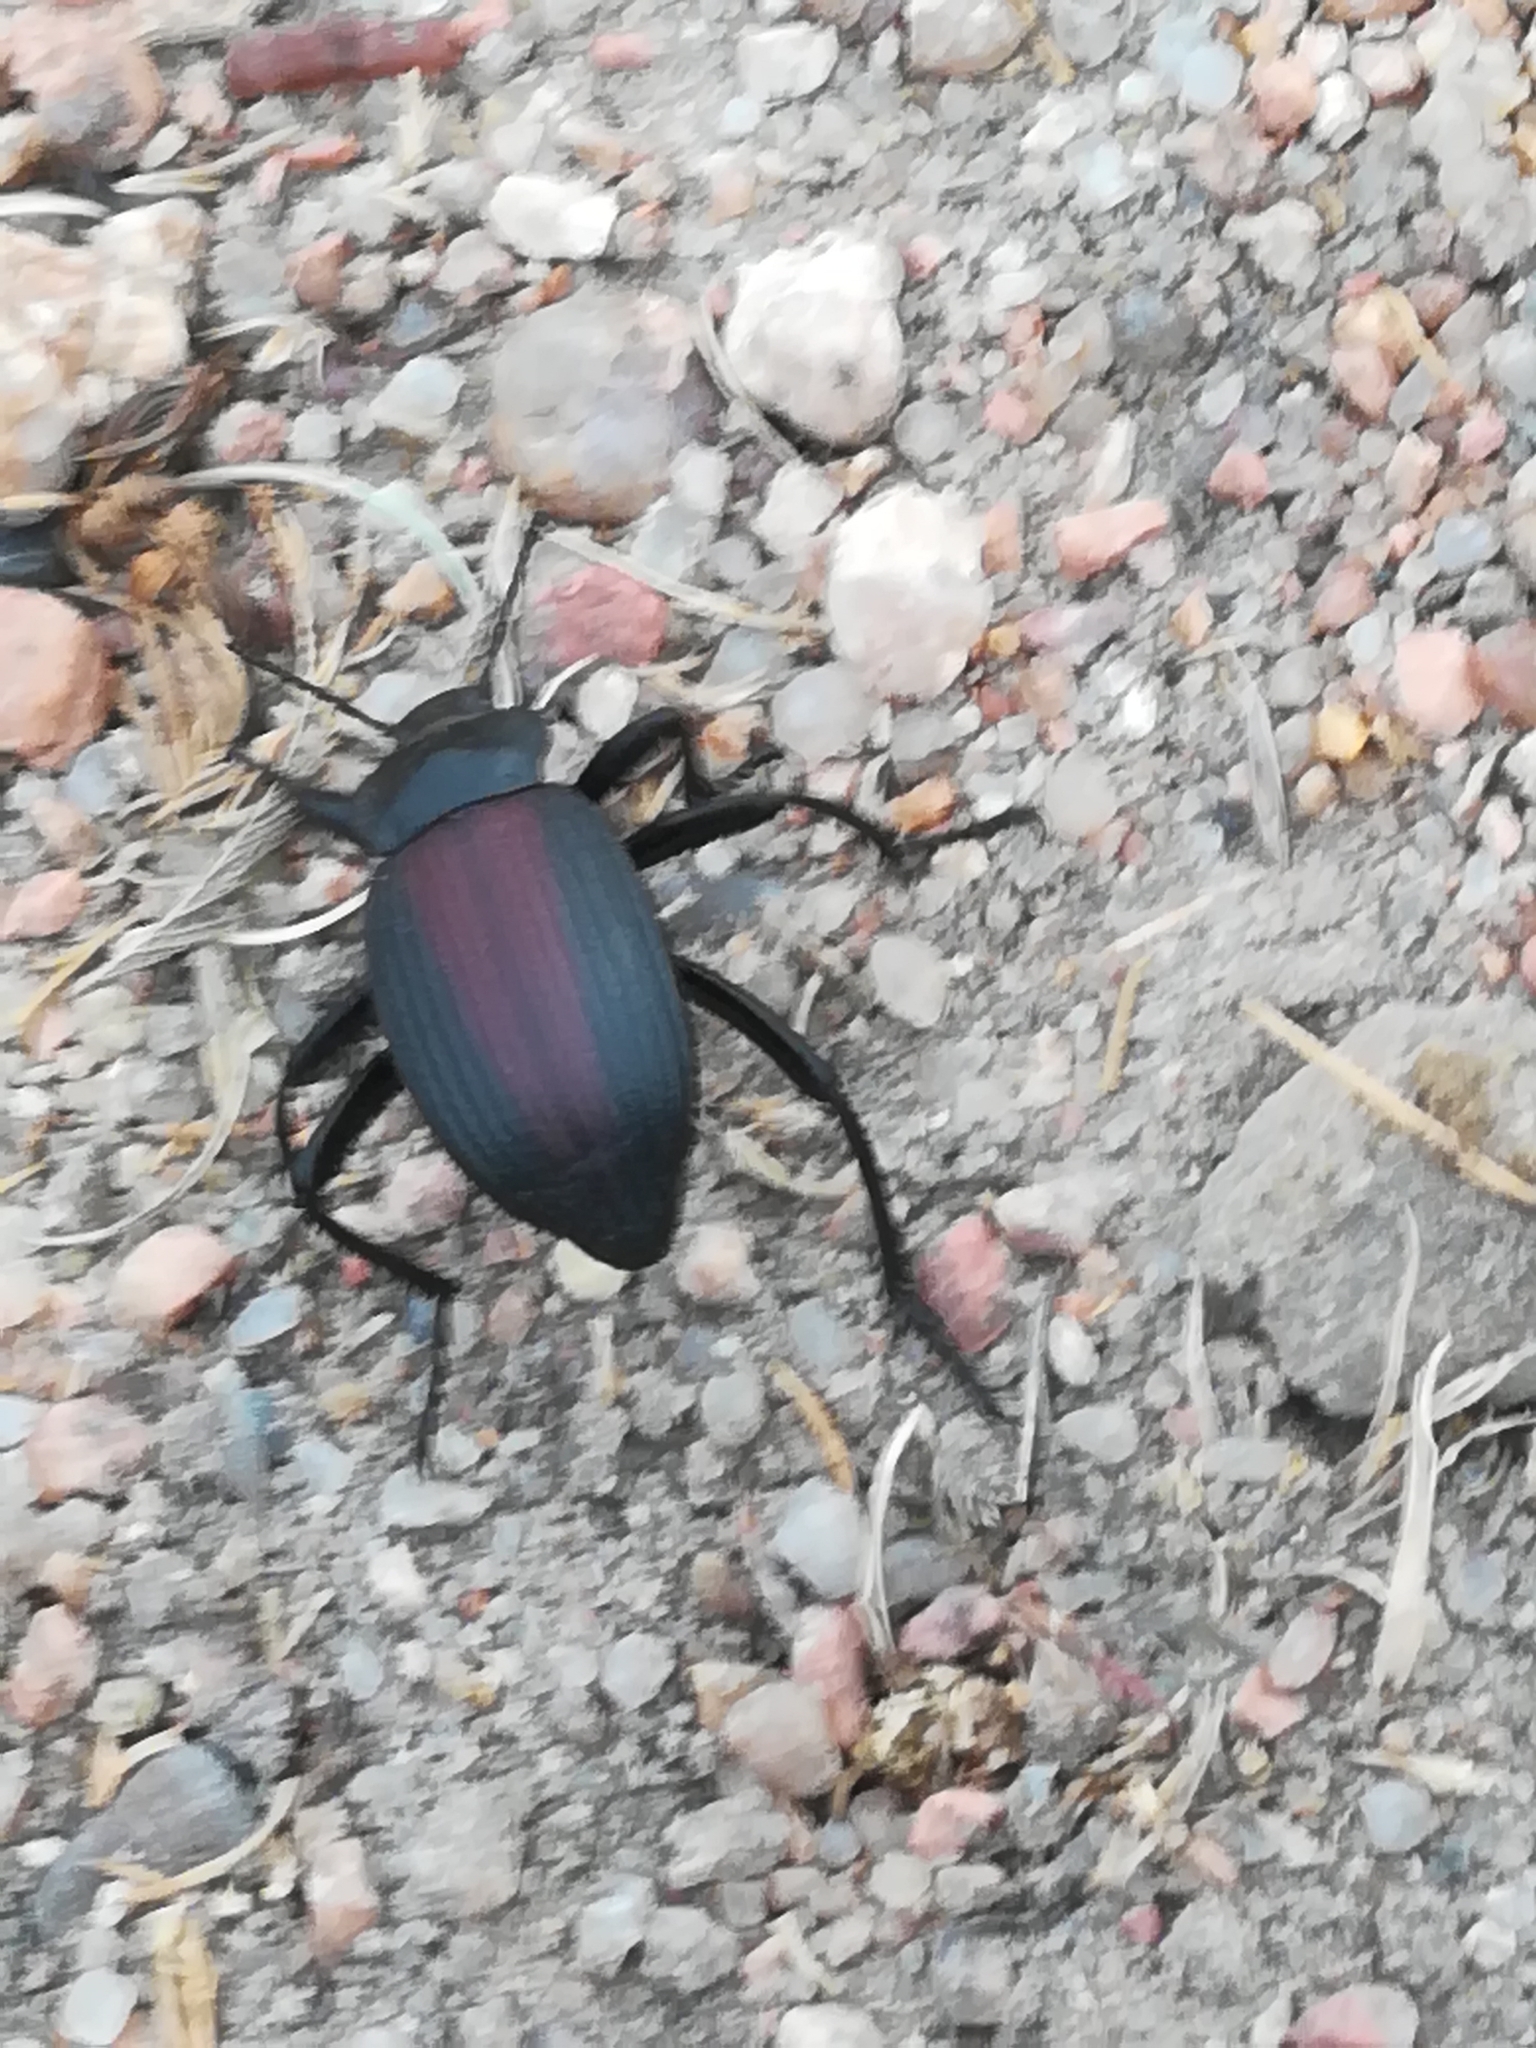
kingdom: Animalia
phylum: Arthropoda
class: Insecta
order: Coleoptera
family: Tenebrionidae
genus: Eleodes
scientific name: Eleodes acuta
